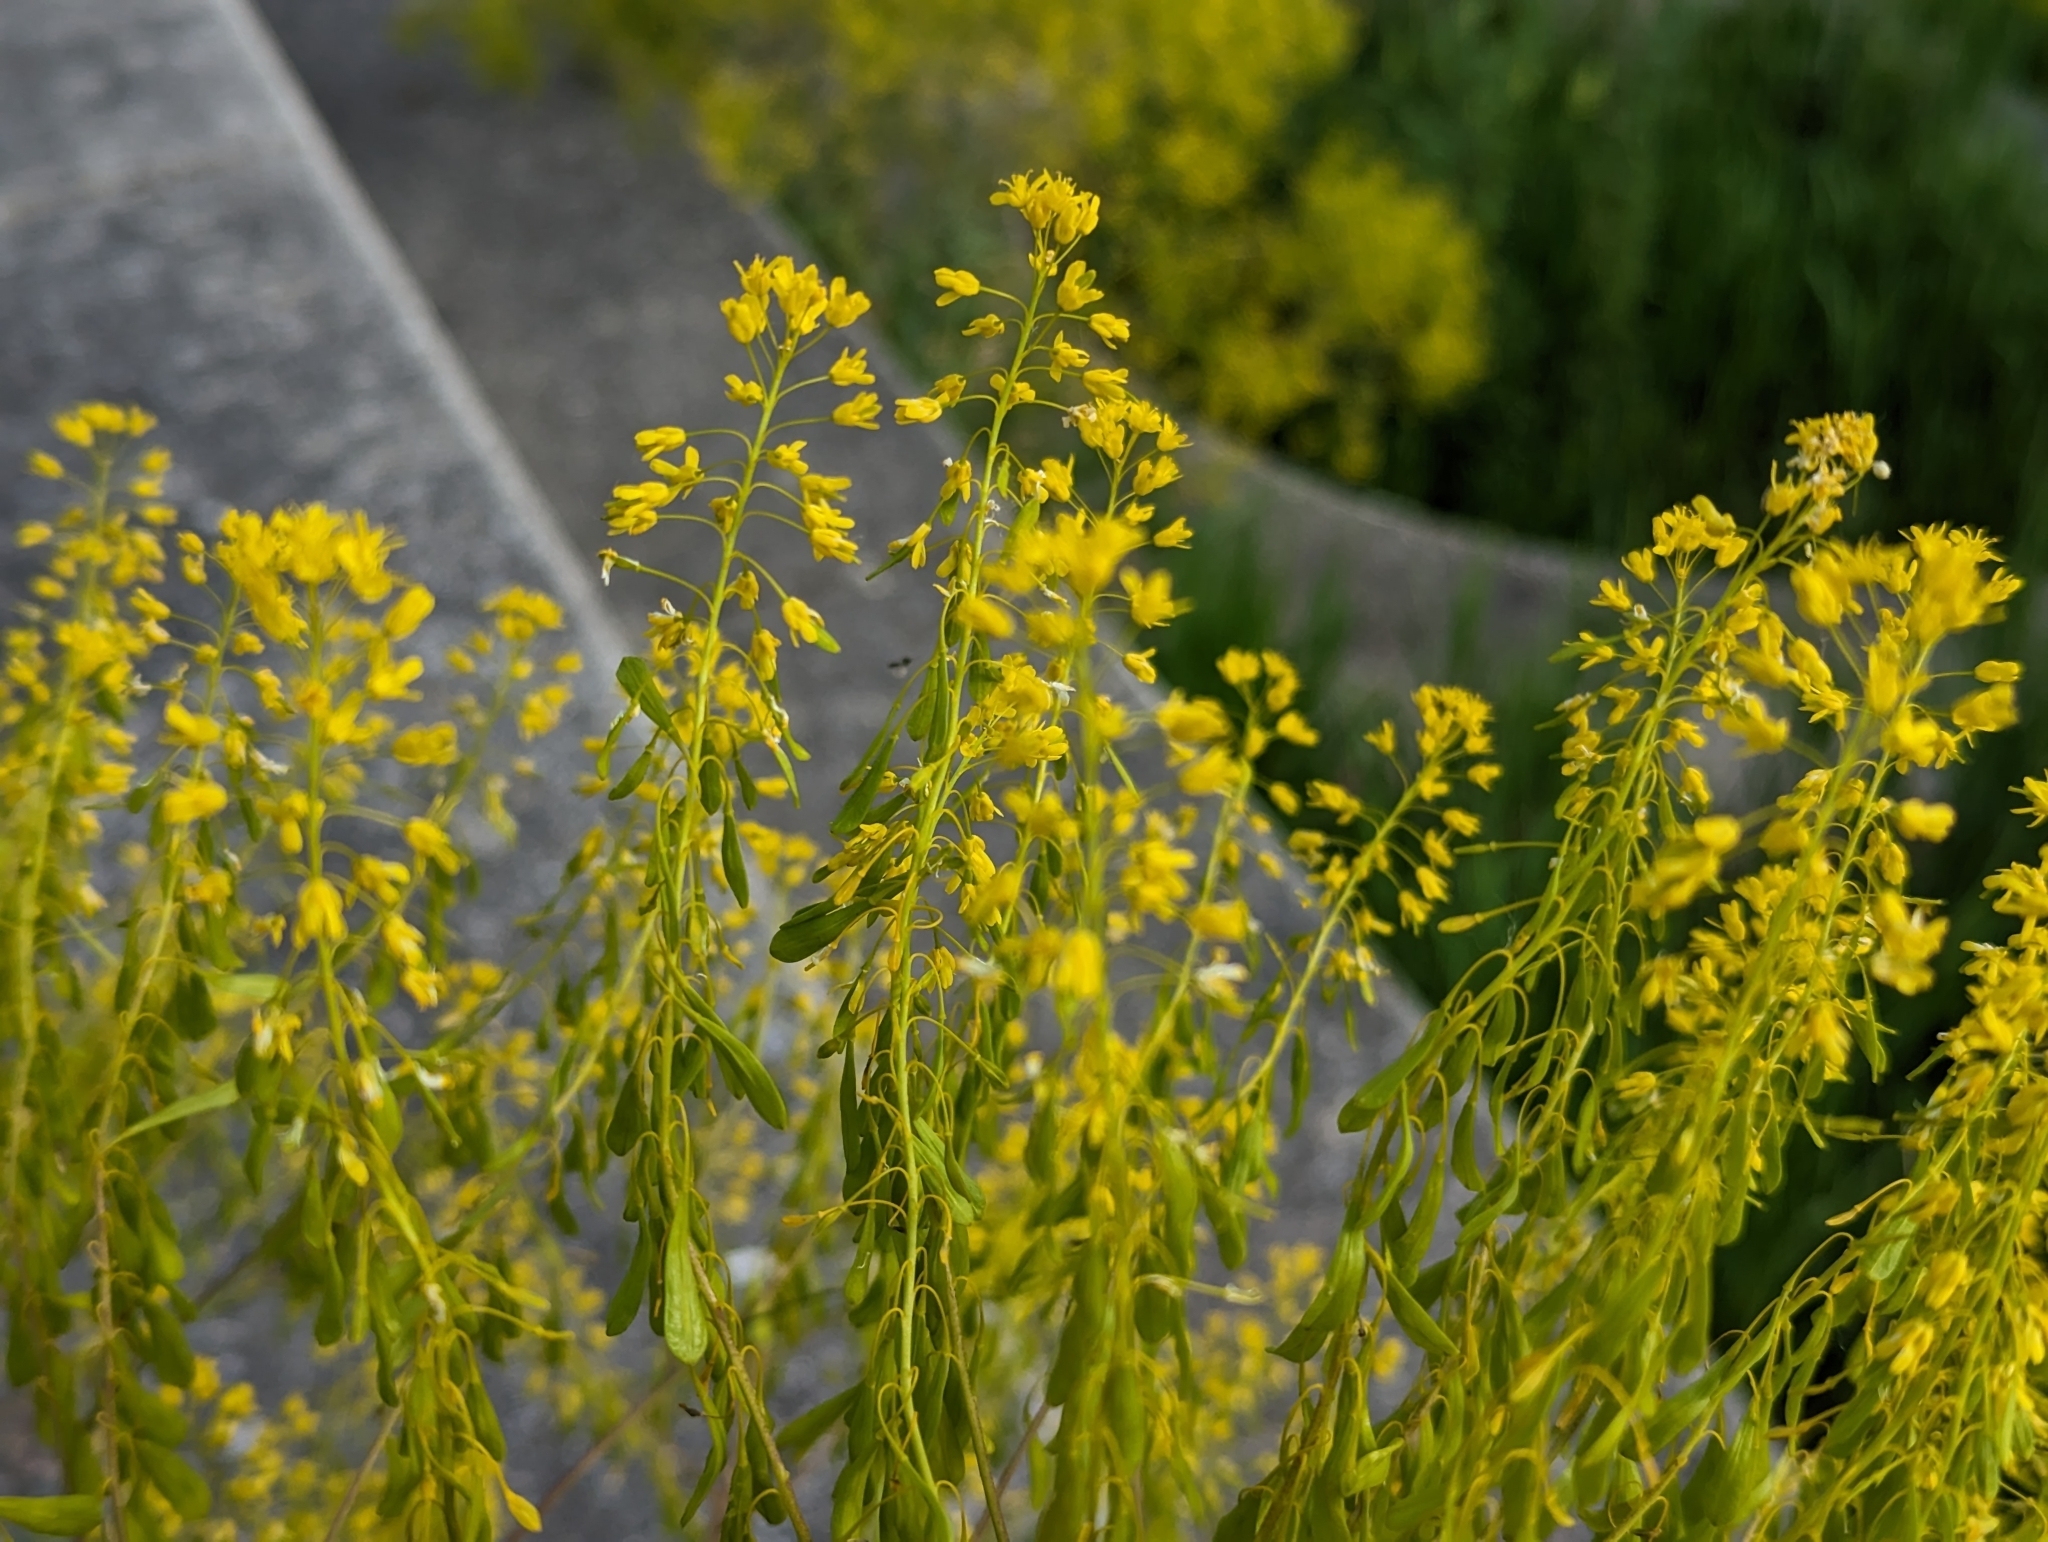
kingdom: Plantae
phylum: Tracheophyta
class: Magnoliopsida
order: Brassicales
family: Brassicaceae
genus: Isatis
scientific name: Isatis tinctoria
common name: Woad
